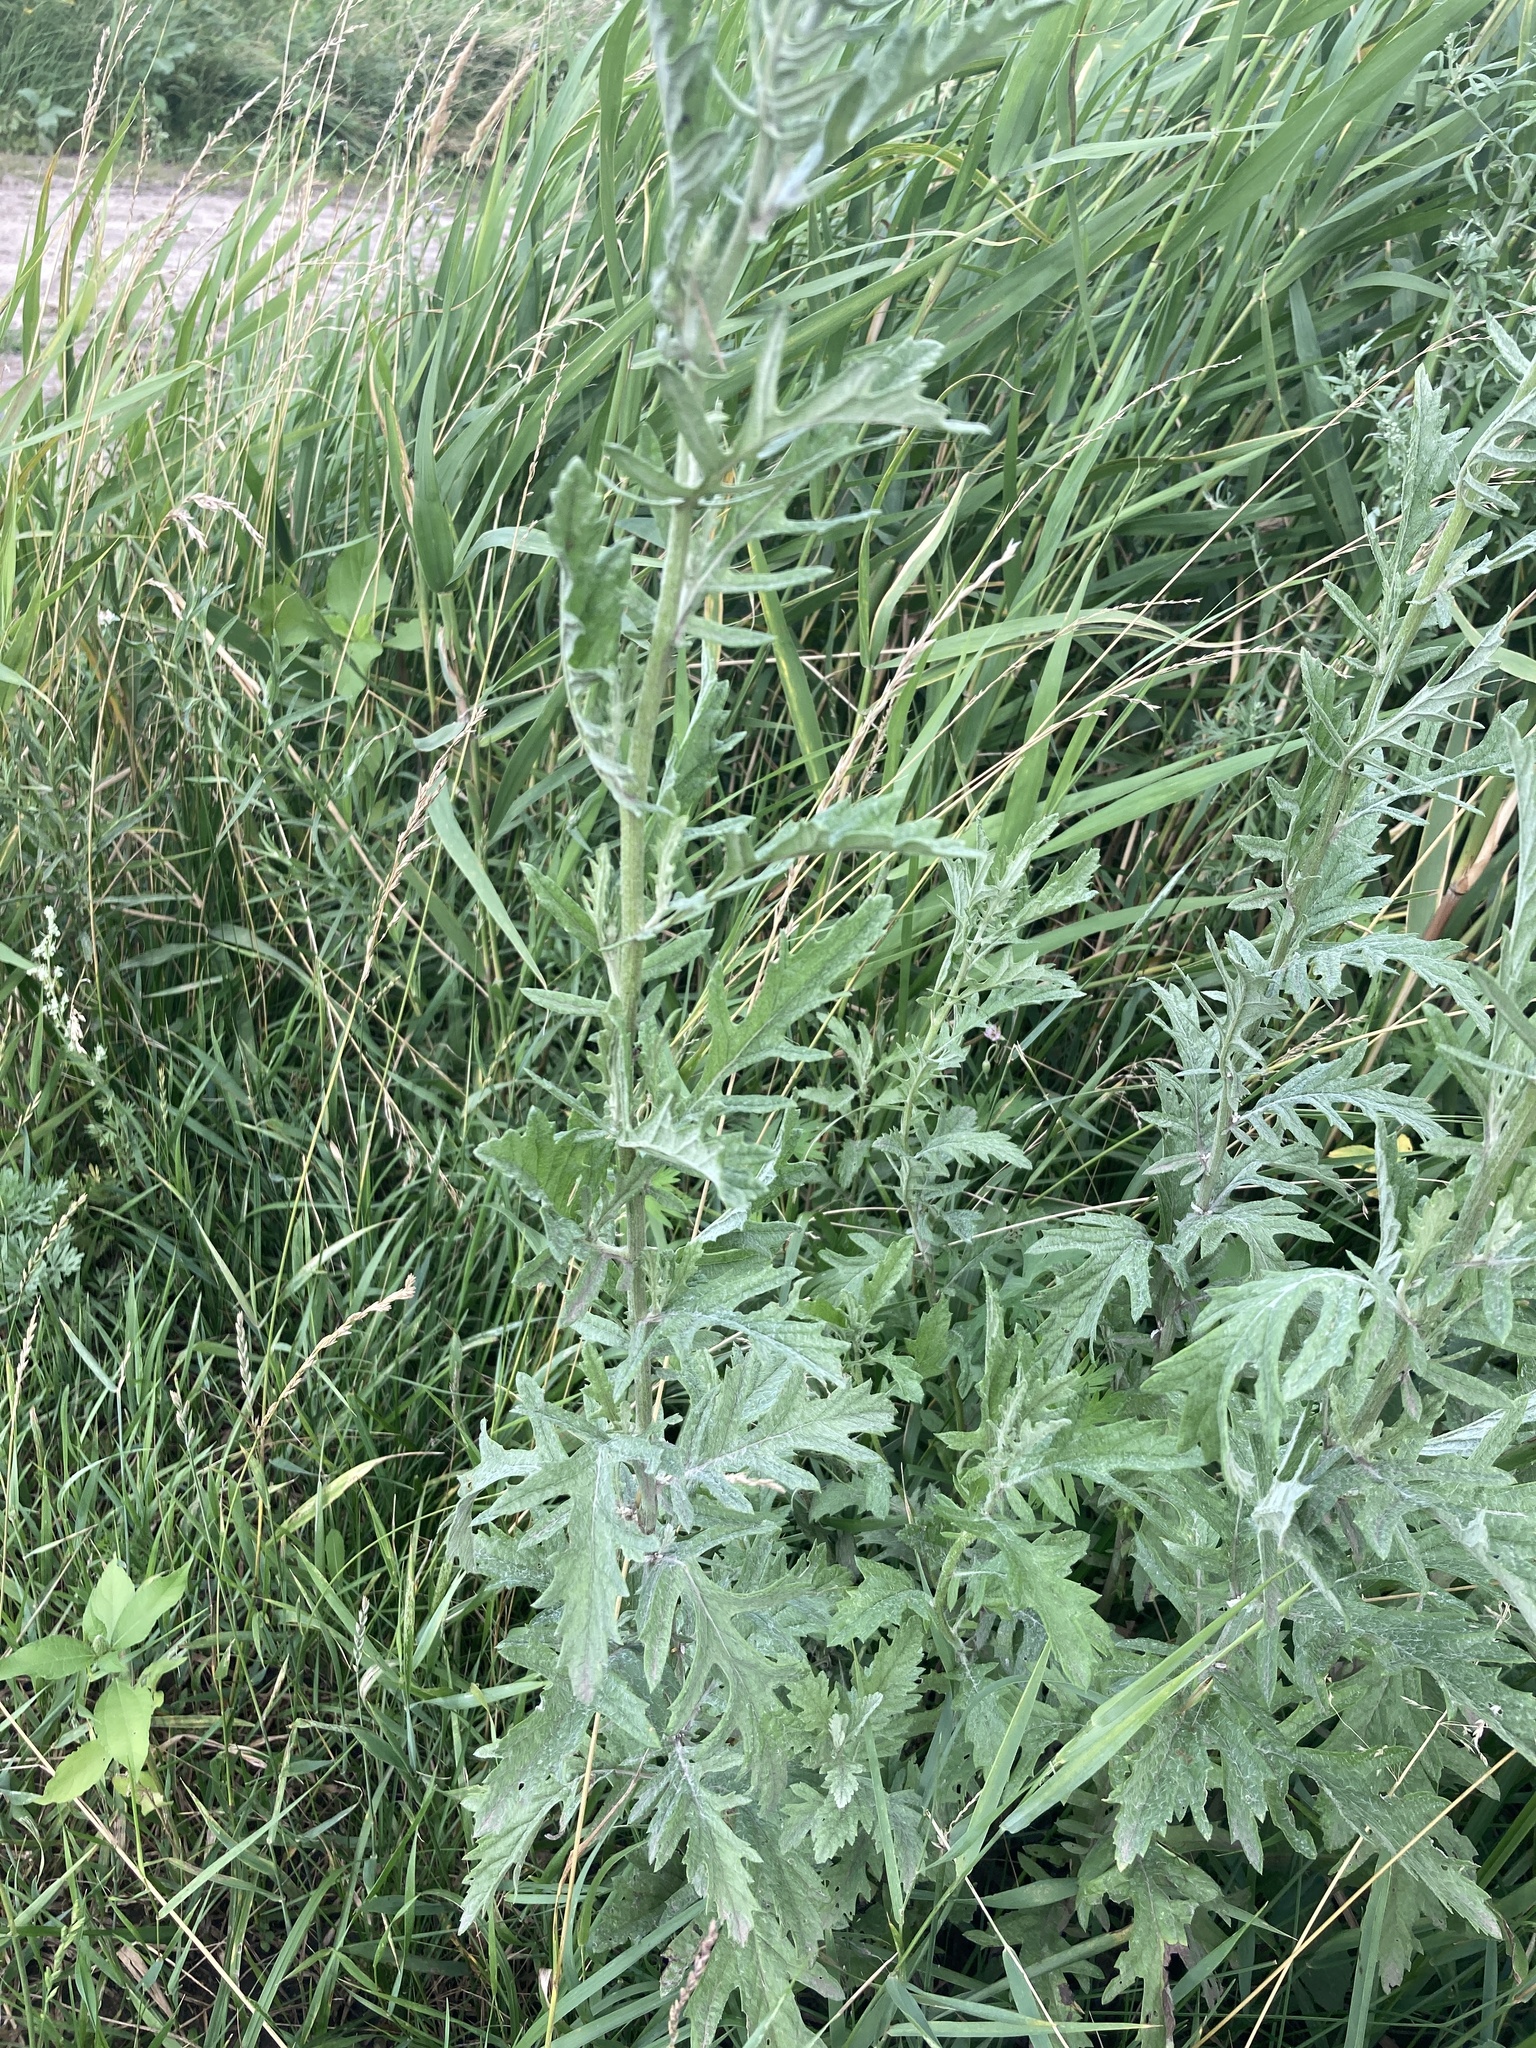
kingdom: Plantae
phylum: Tracheophyta
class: Magnoliopsida
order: Asterales
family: Asteraceae
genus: Jacobaea
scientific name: Jacobaea erucifolia
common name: Hoary ragwort
